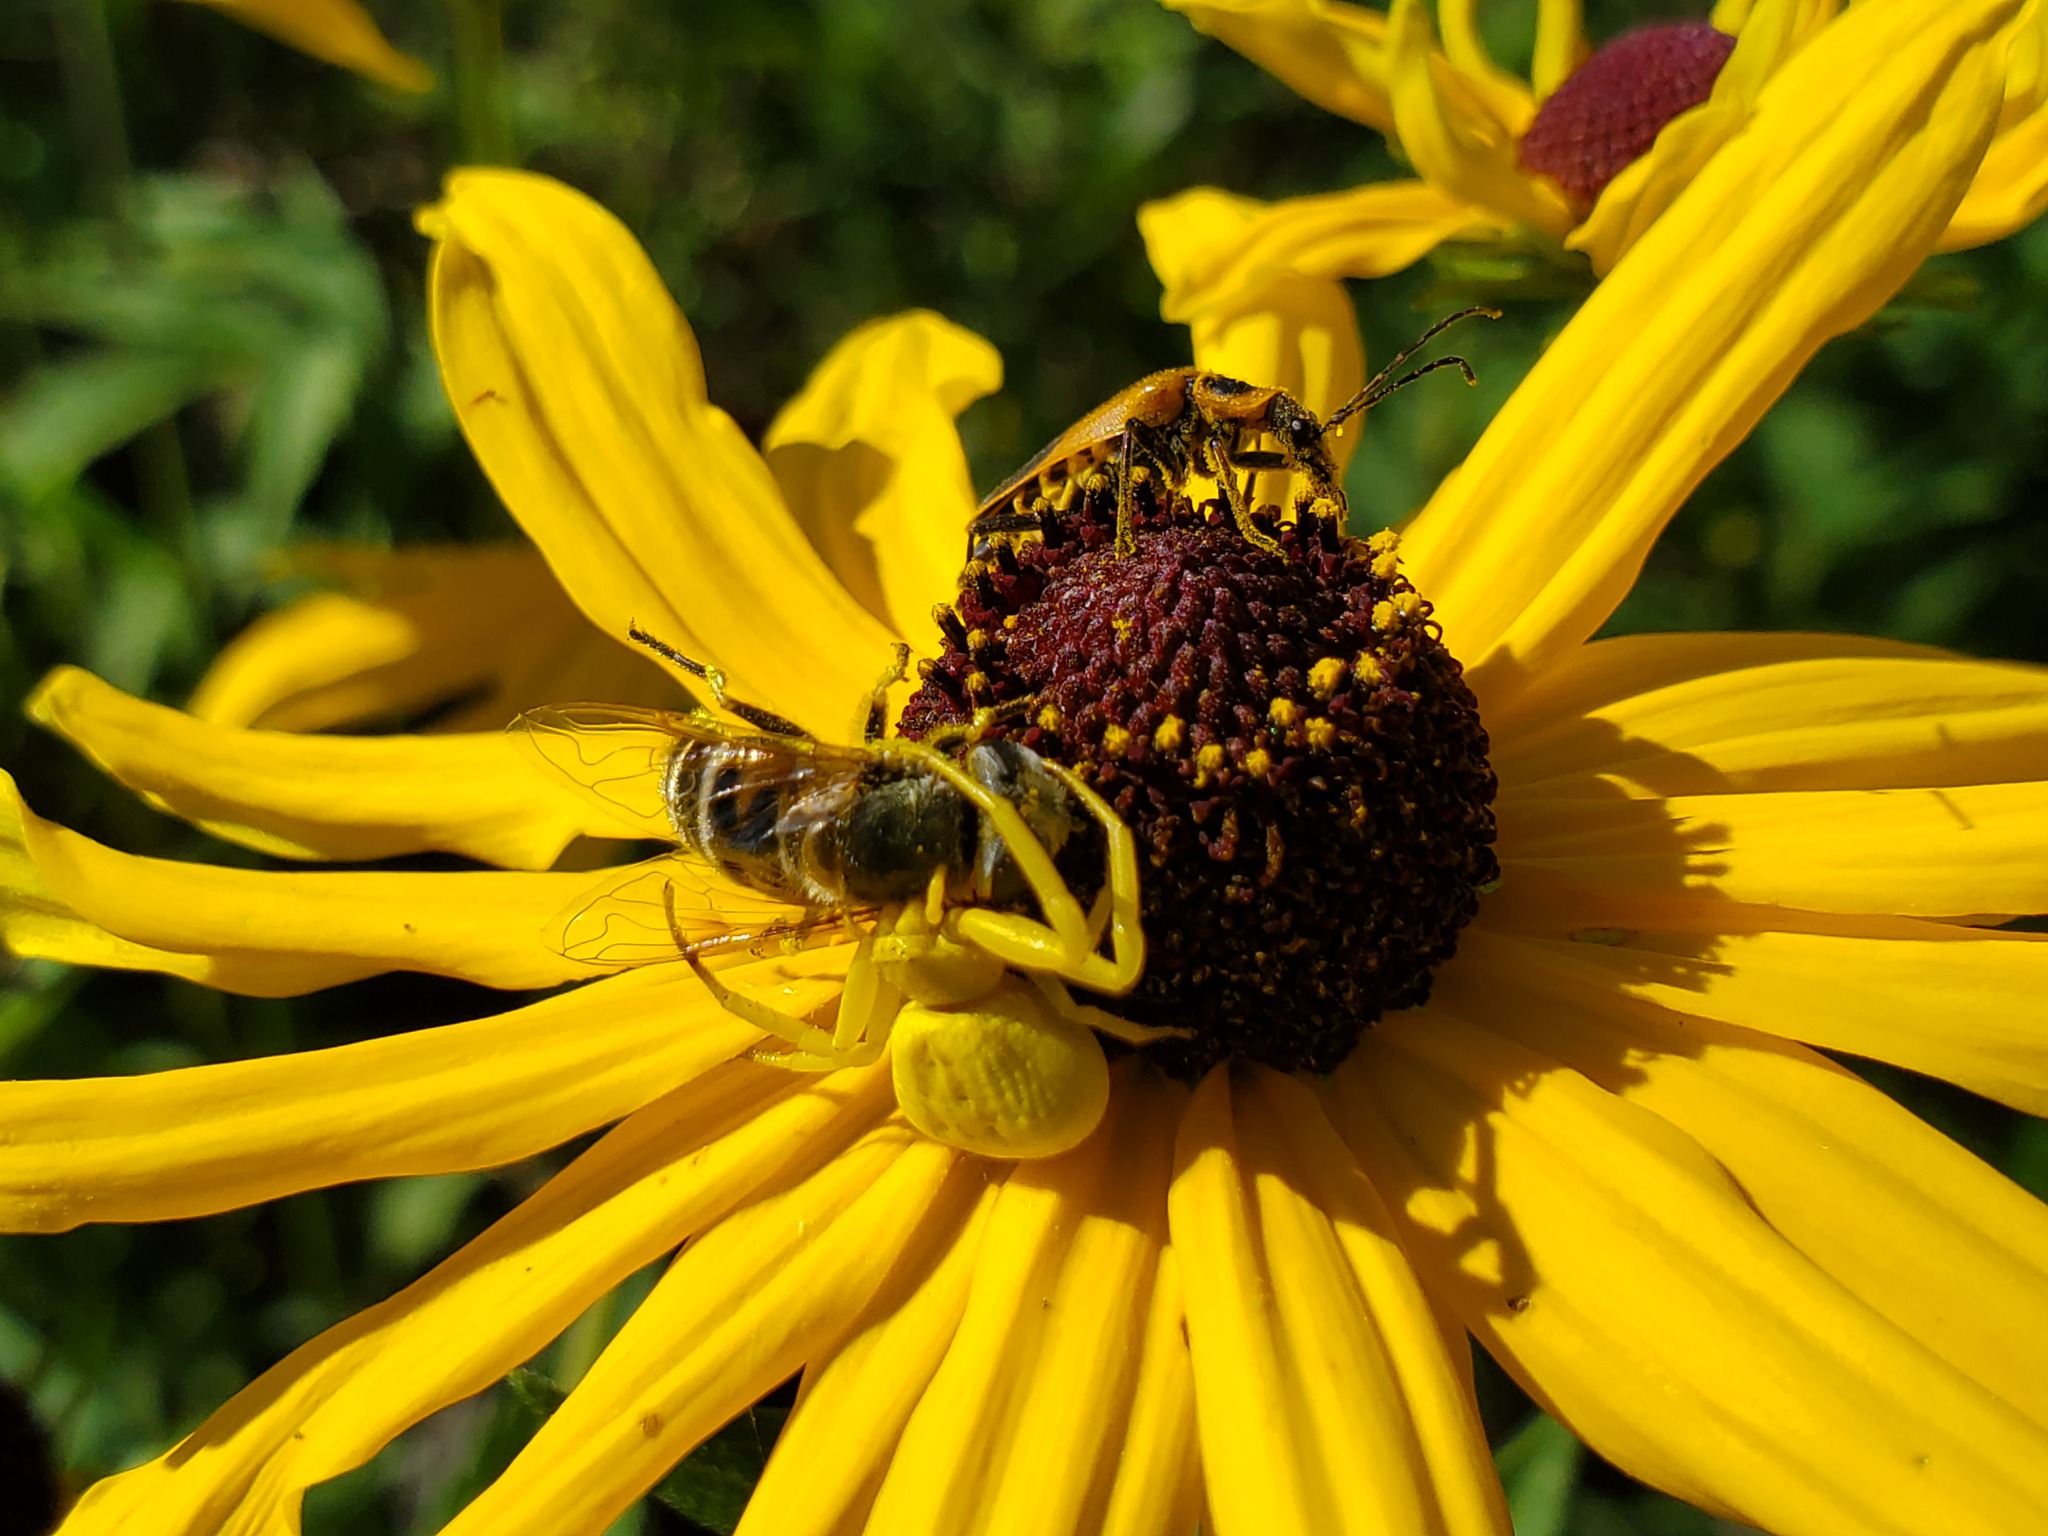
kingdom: Animalia
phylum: Arthropoda
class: Arachnida
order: Araneae
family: Thomisidae
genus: Misumenoides
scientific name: Misumenoides formosipes
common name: White-banded crab spider
